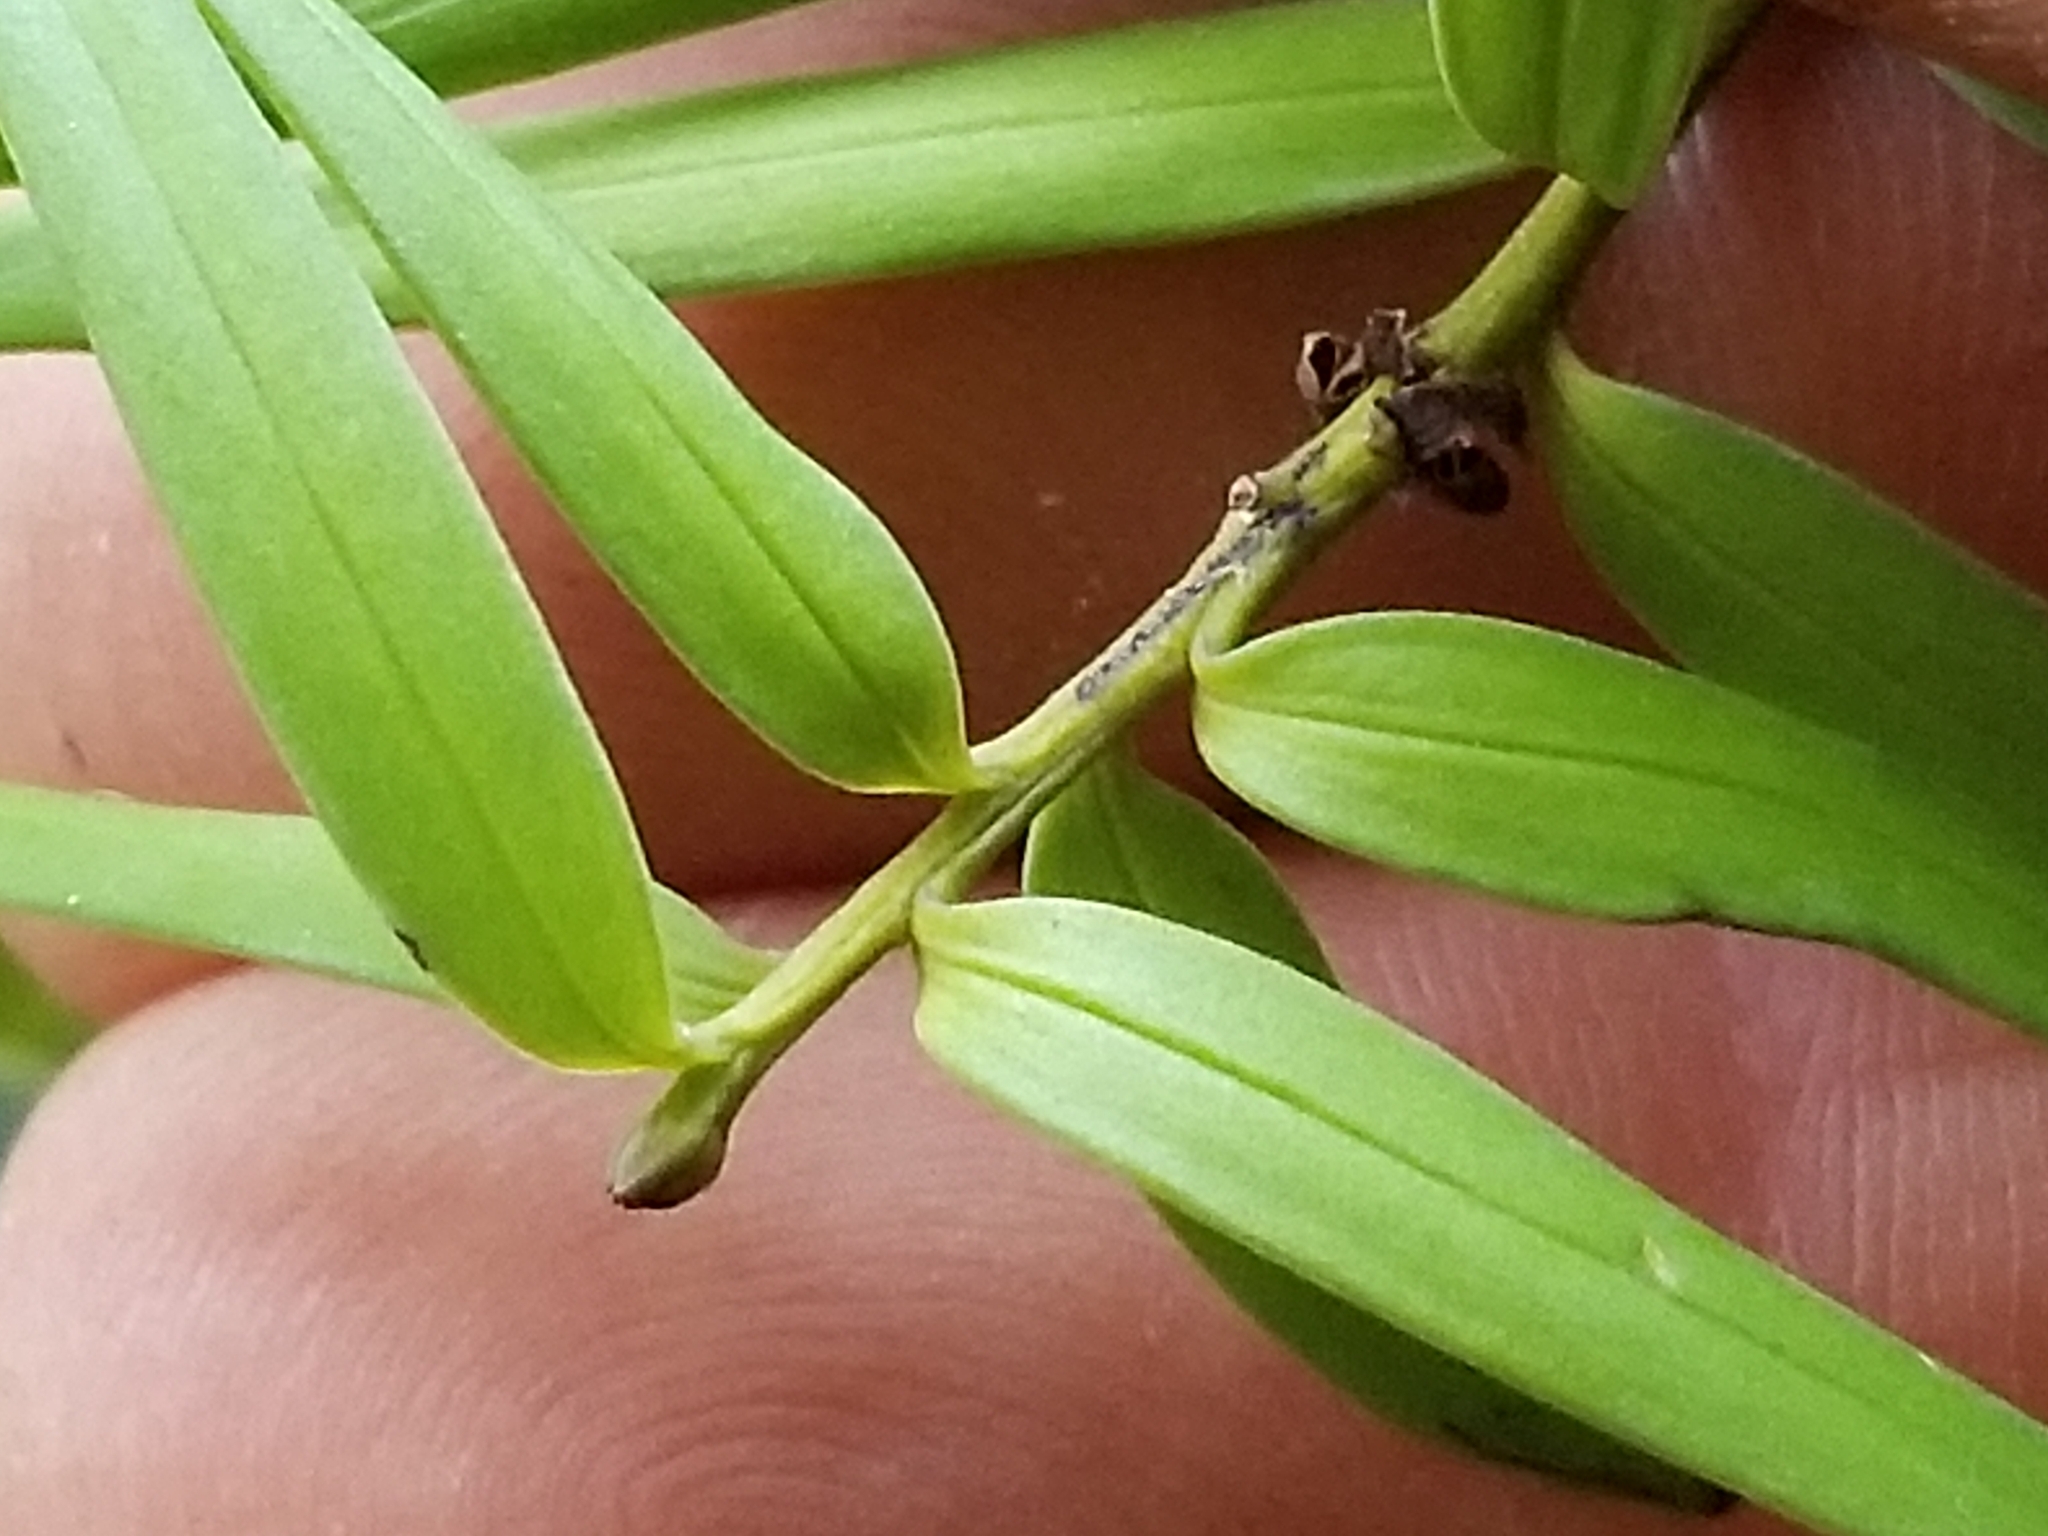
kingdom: Plantae
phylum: Tracheophyta
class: Pinopsida
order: Pinales
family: Podocarpaceae
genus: Podocarpus
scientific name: Podocarpus laetus
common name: Hall's totara
